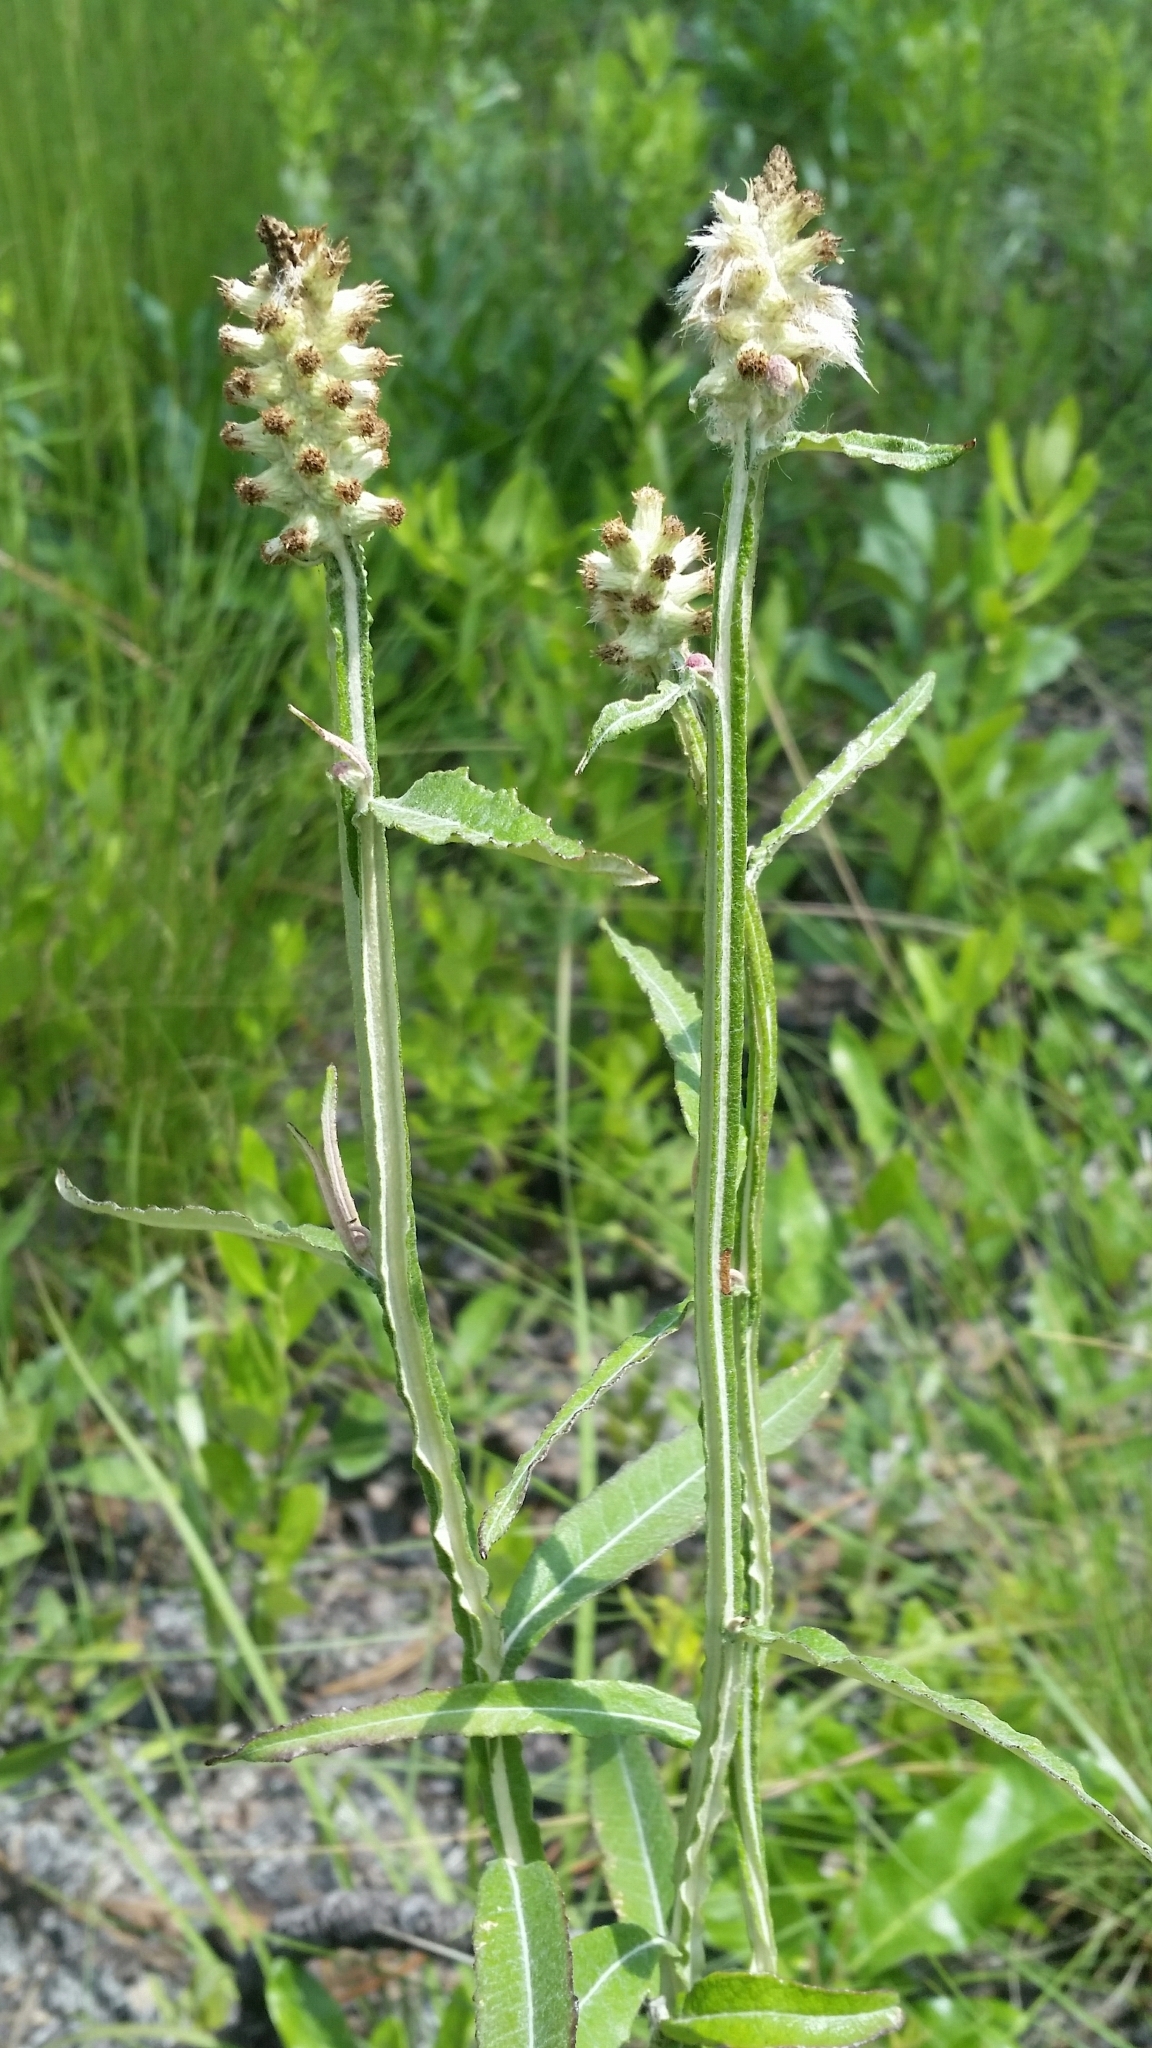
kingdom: Plantae
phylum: Tracheophyta
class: Magnoliopsida
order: Asterales
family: Asteraceae
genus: Pterocaulon
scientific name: Pterocaulon pycnostachyum
